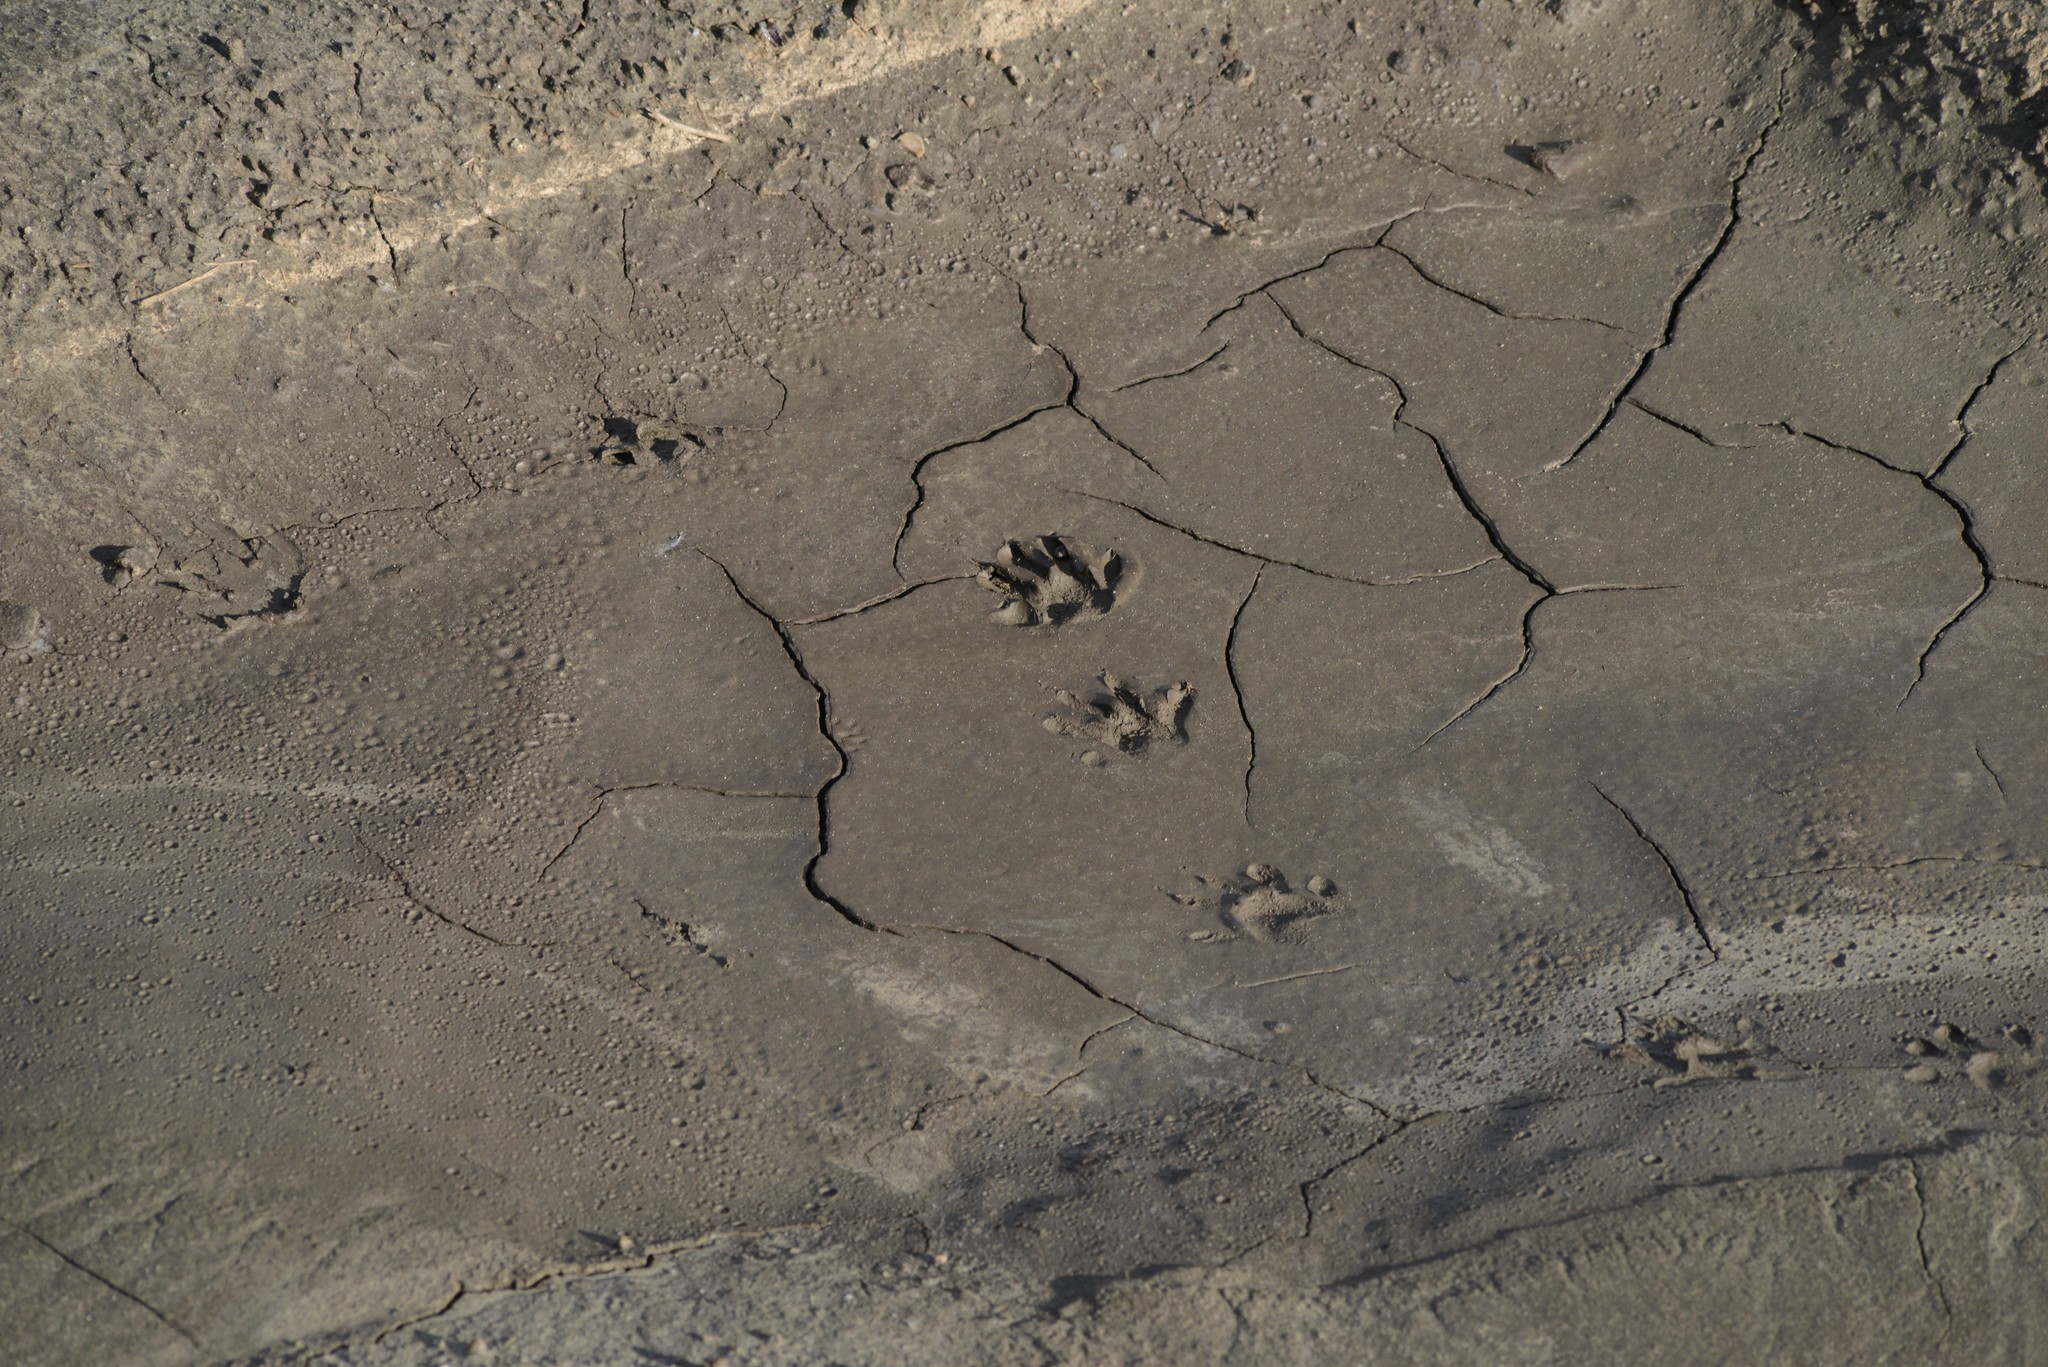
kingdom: Animalia
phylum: Chordata
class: Mammalia
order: Carnivora
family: Procyonidae
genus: Procyon
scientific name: Procyon lotor
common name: Raccoon
